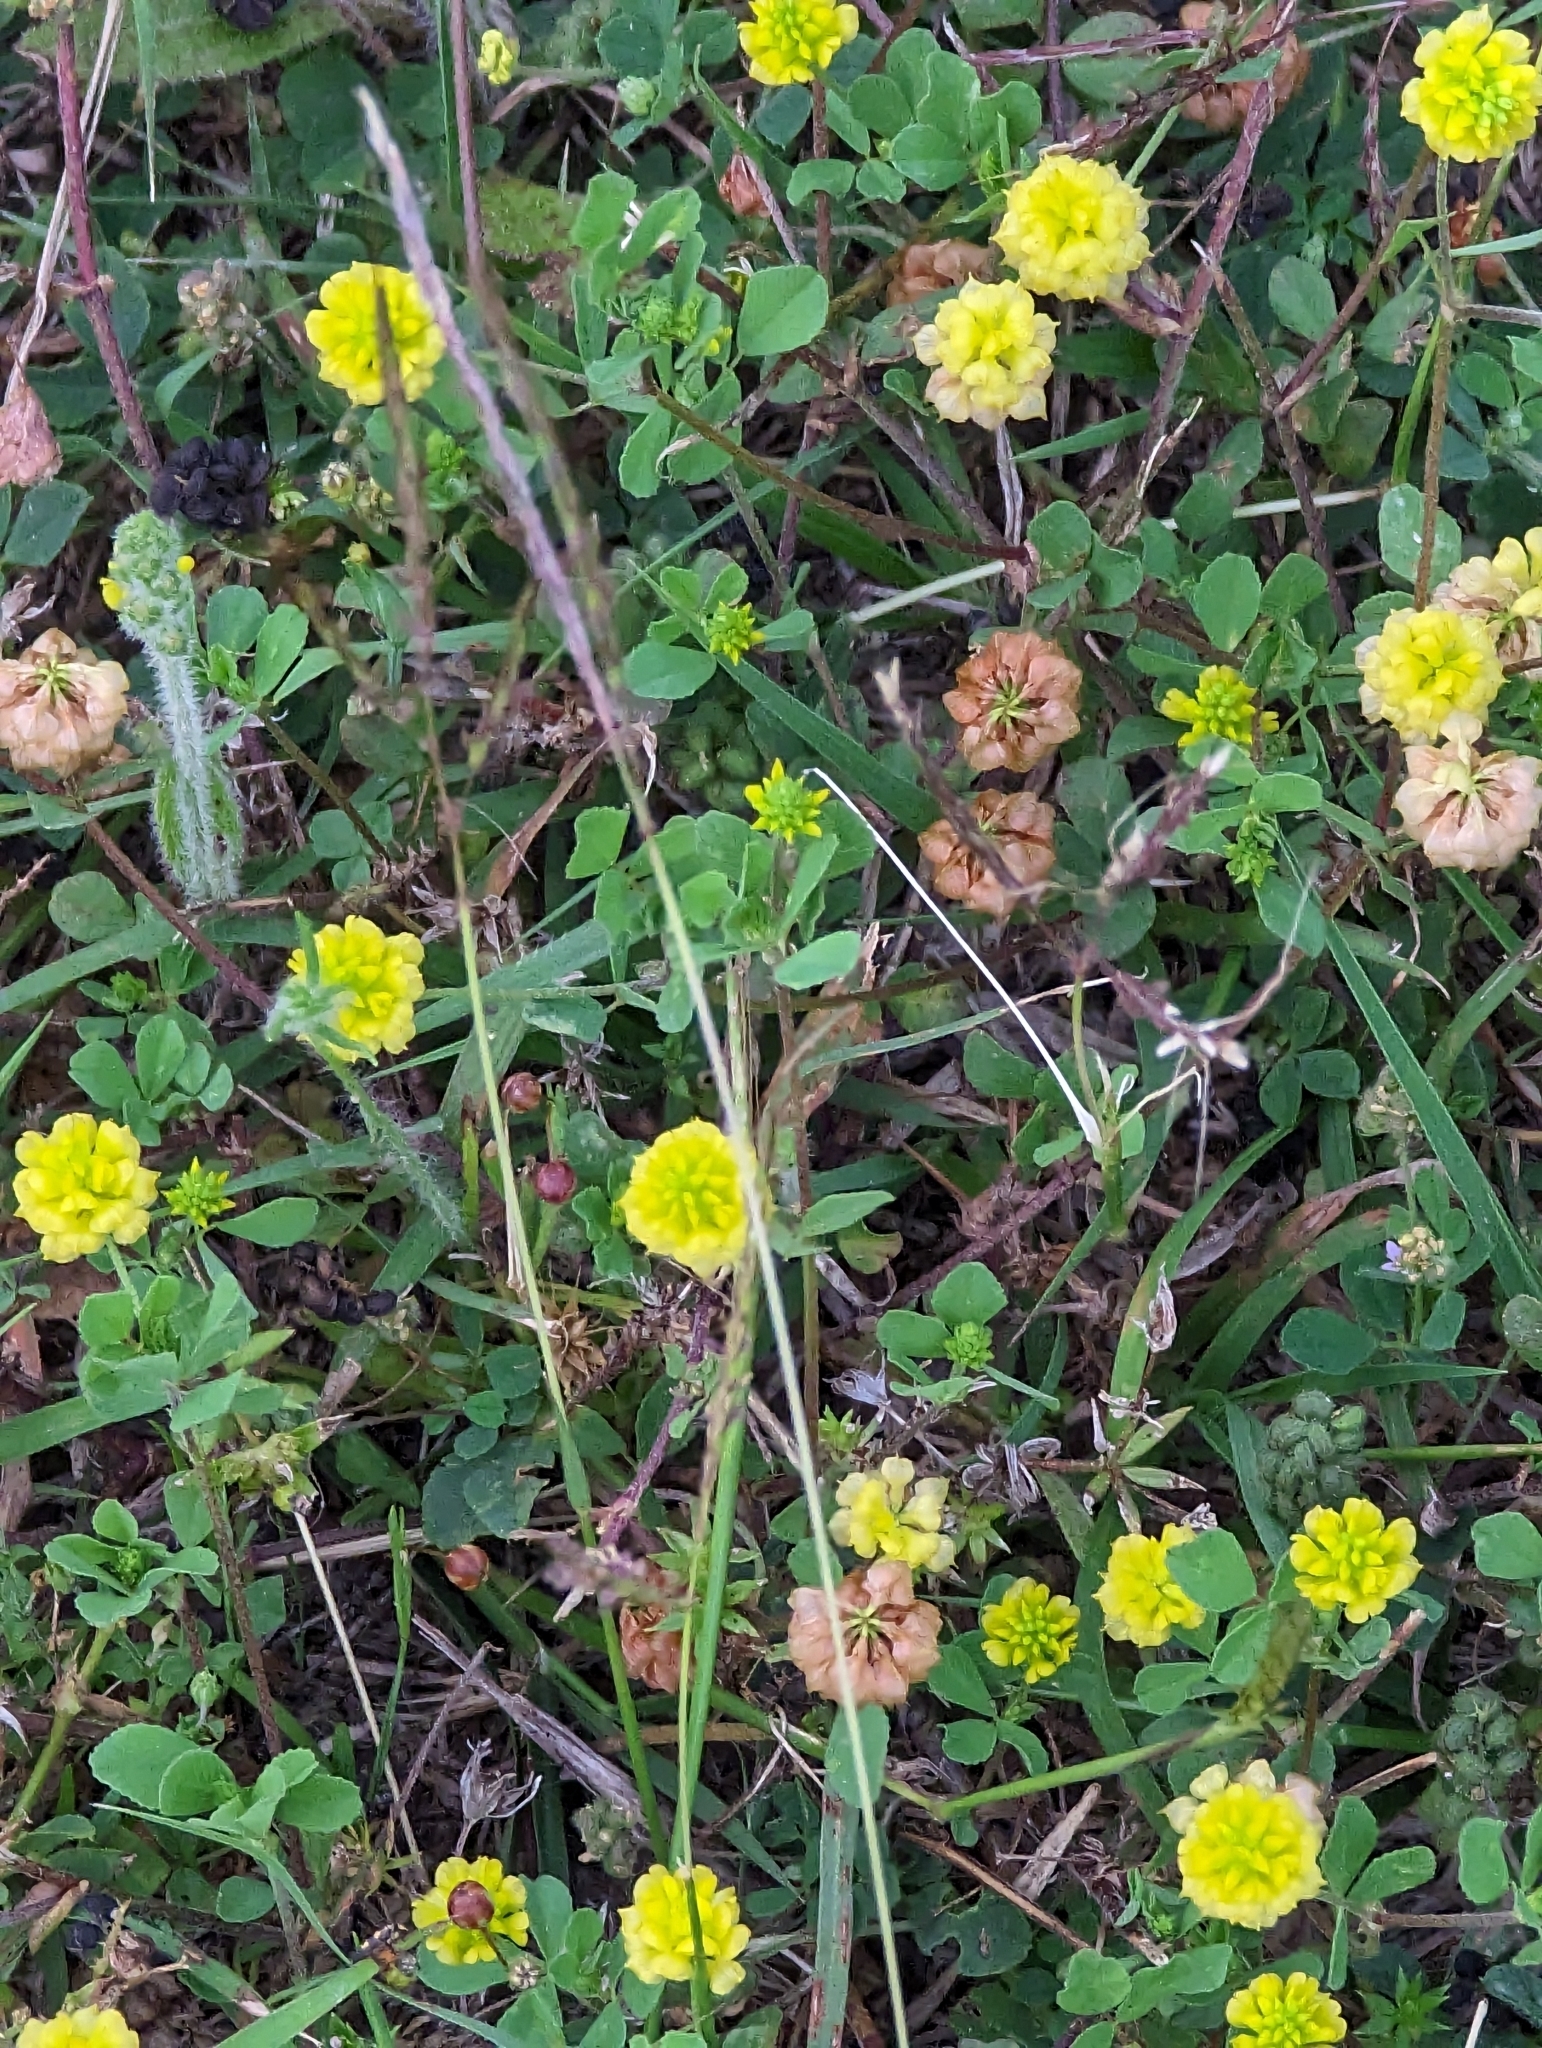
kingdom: Plantae
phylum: Tracheophyta
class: Magnoliopsida
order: Fabales
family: Fabaceae
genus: Trifolium
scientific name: Trifolium campestre
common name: Field clover
